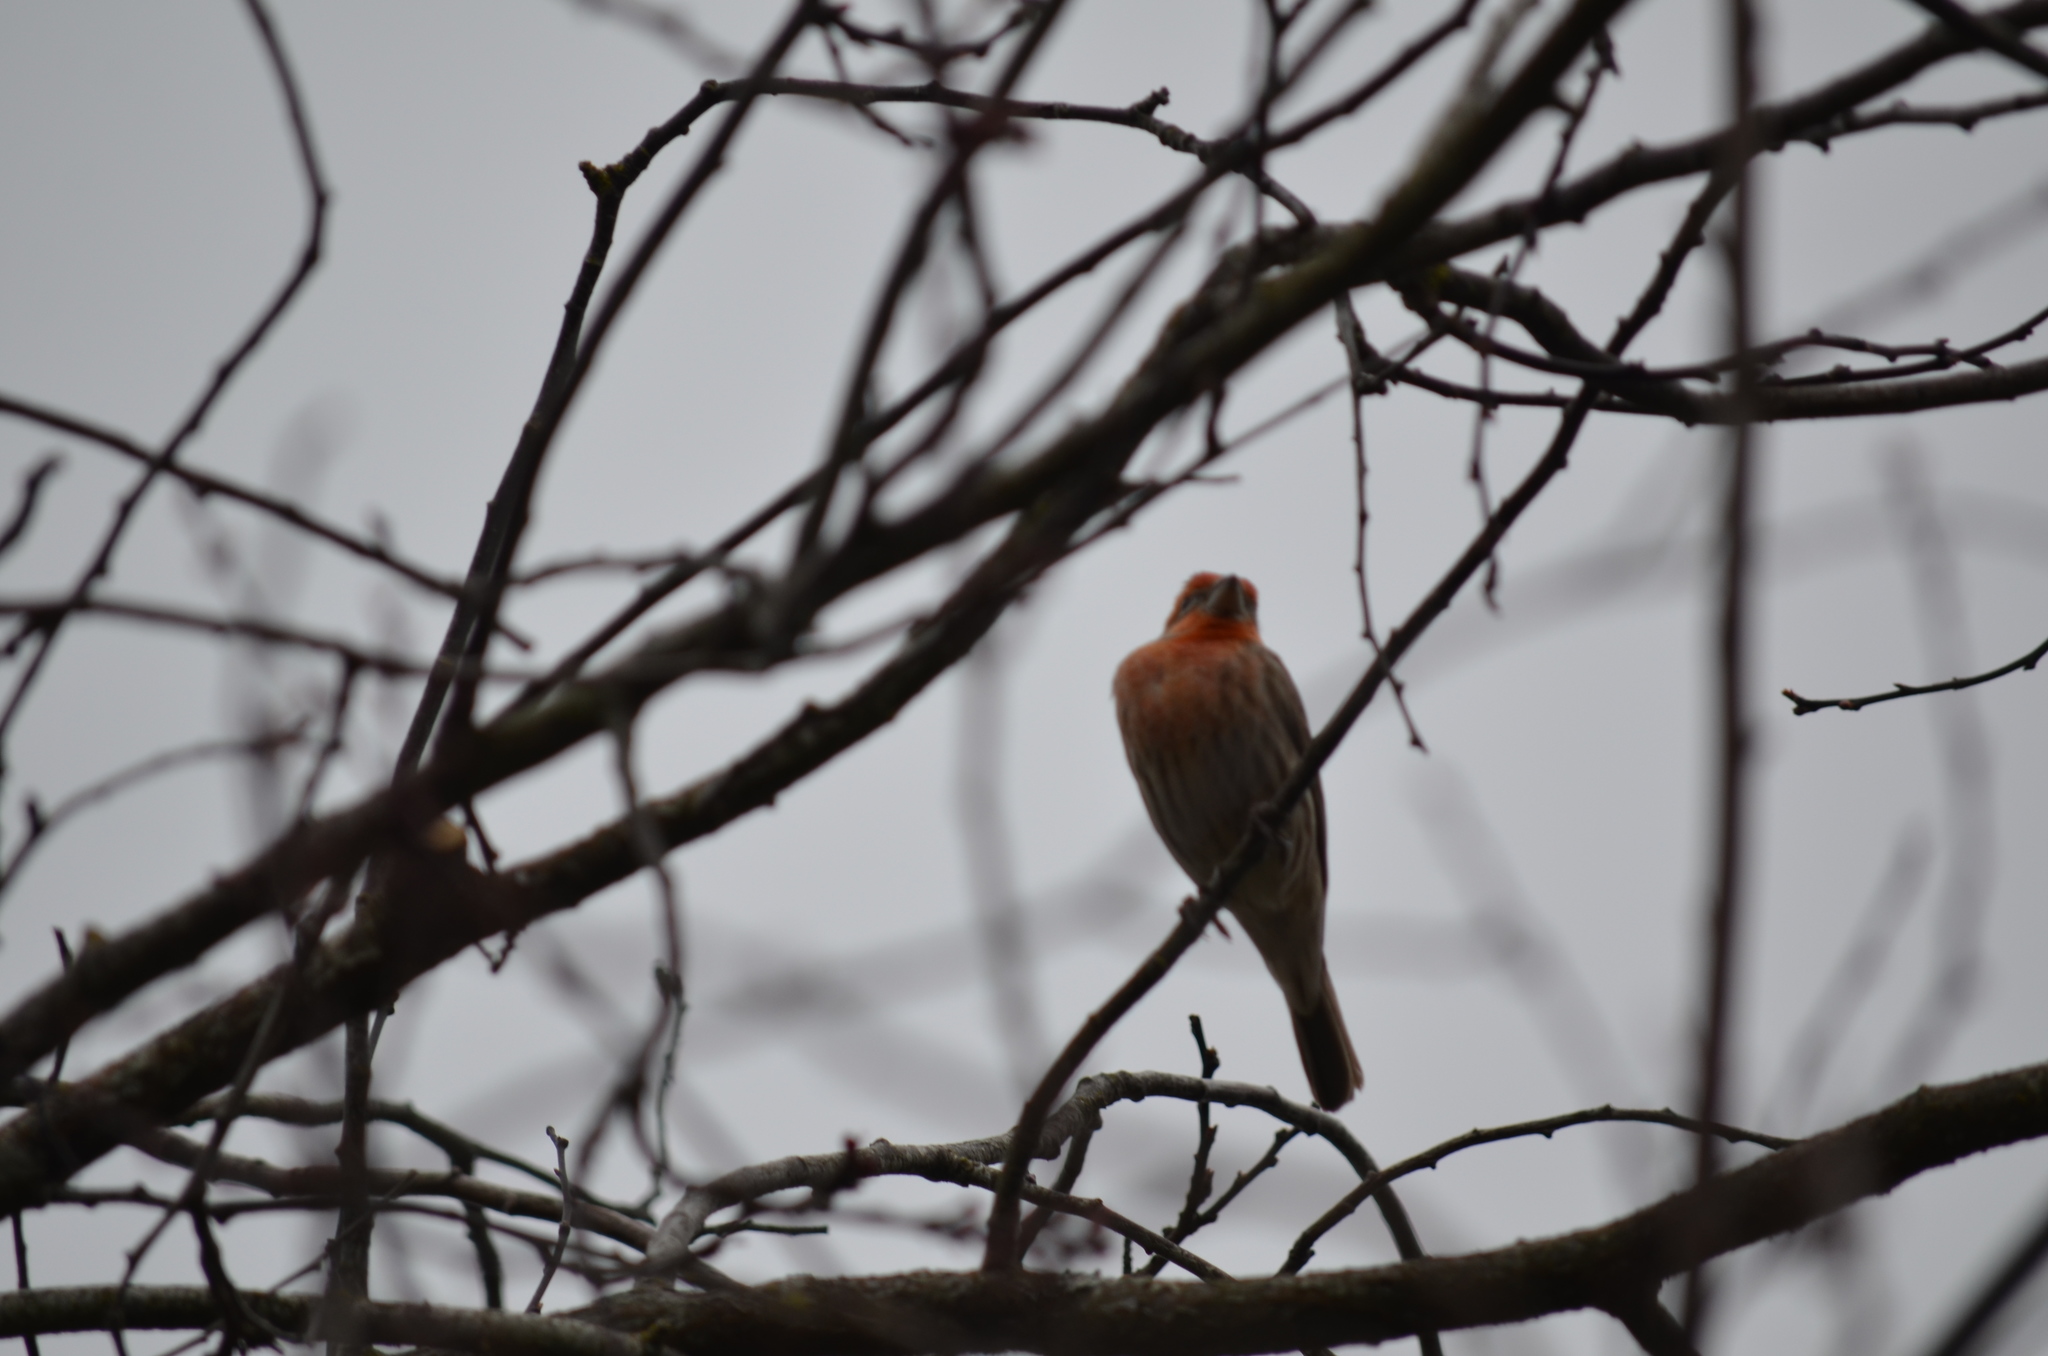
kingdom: Animalia
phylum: Chordata
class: Aves
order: Passeriformes
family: Fringillidae
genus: Haemorhous
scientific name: Haemorhous mexicanus
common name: House finch
